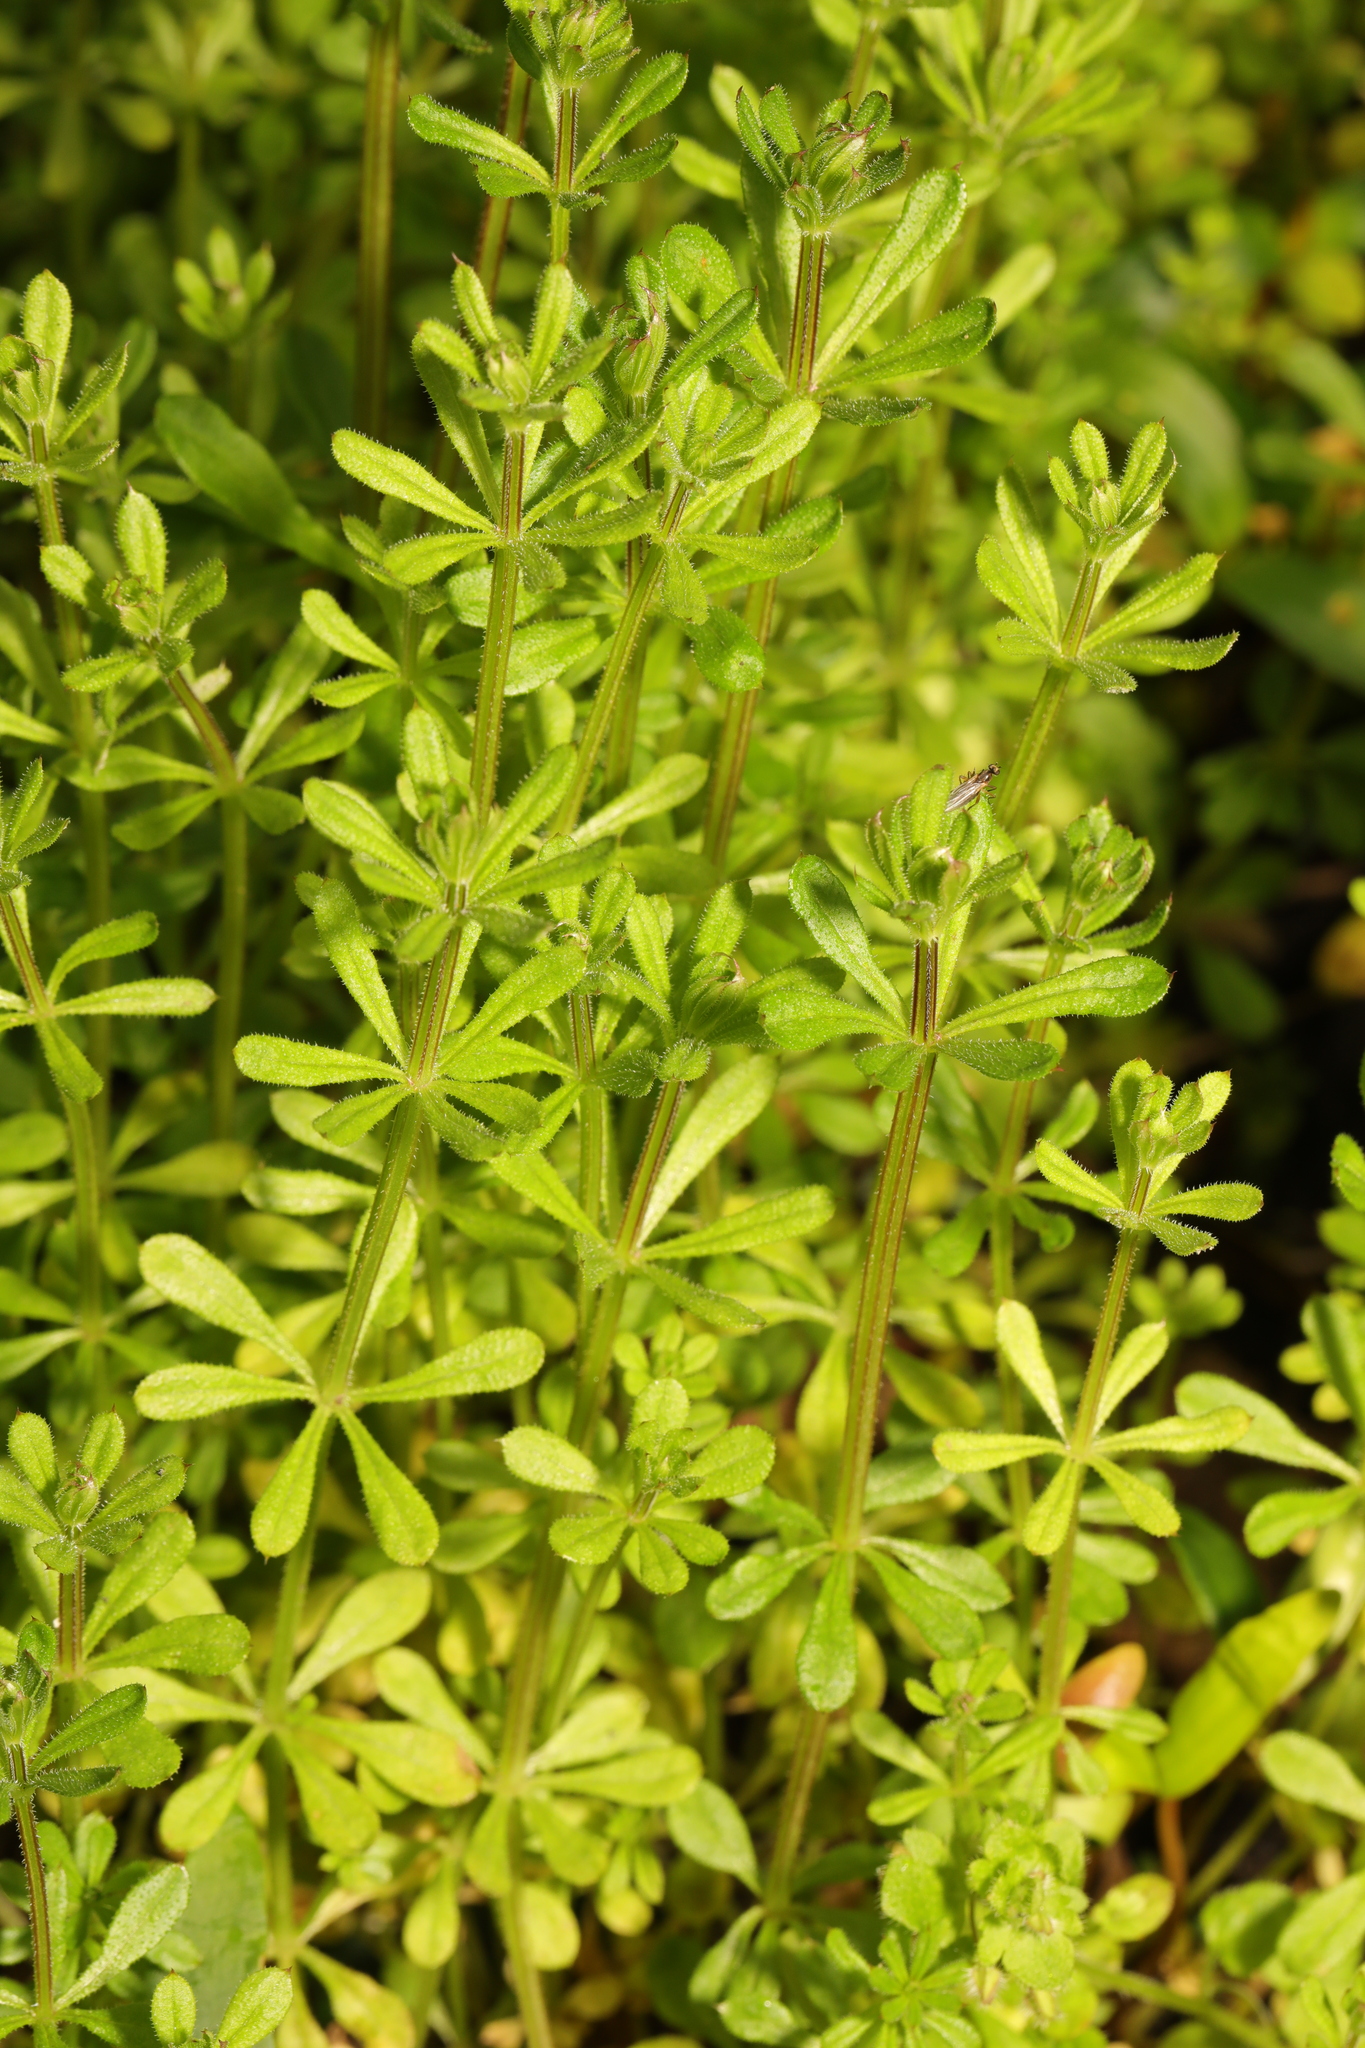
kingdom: Plantae
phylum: Tracheophyta
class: Magnoliopsida
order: Gentianales
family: Rubiaceae
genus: Galium
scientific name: Galium aparine
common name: Cleavers
